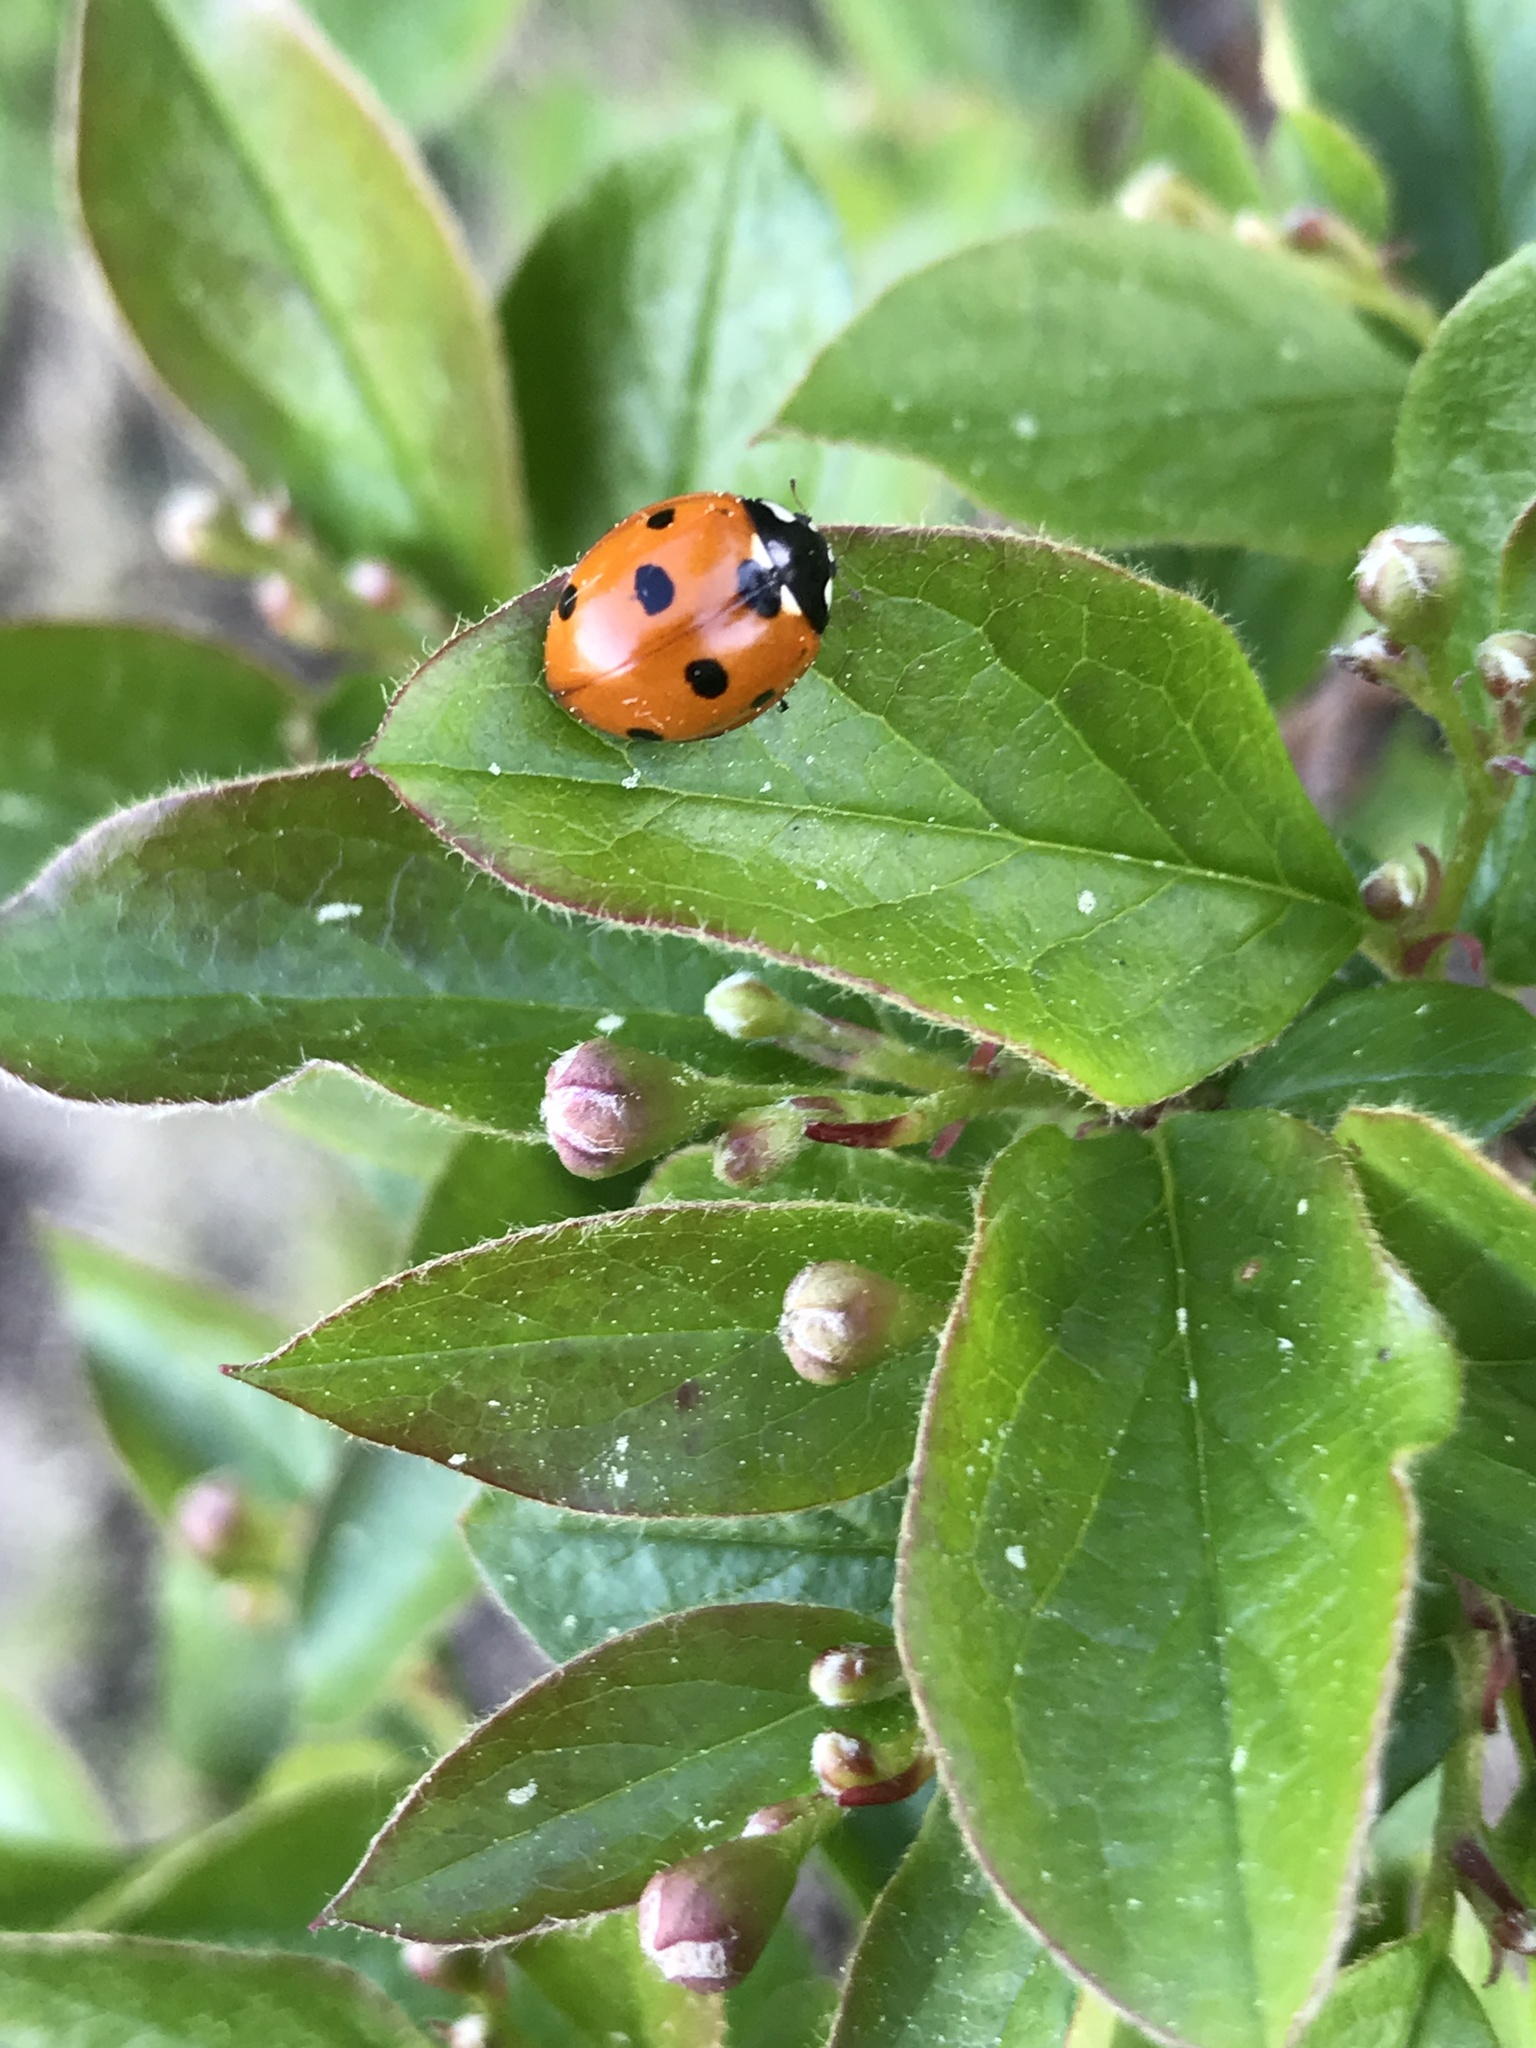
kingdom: Animalia
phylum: Arthropoda
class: Insecta
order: Coleoptera
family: Coccinellidae
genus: Coccinella
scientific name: Coccinella septempunctata
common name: Sevenspotted lady beetle
